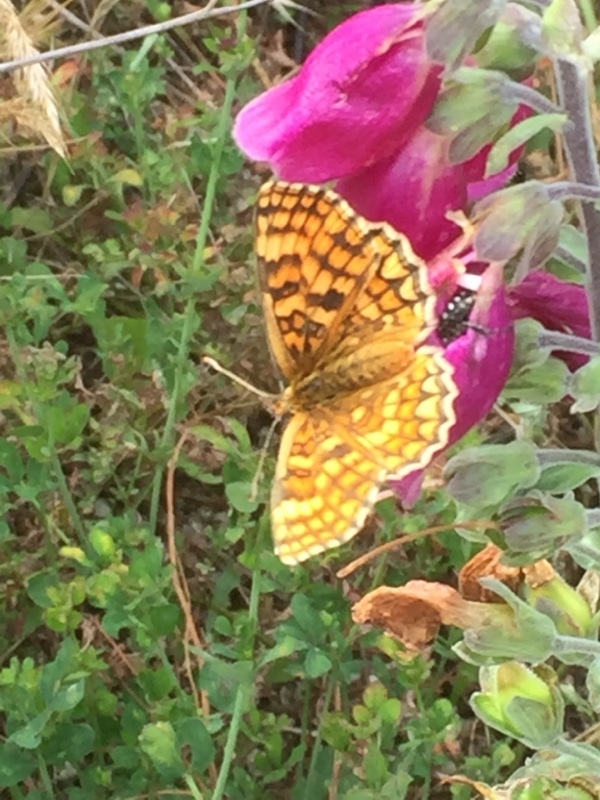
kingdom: Animalia
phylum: Arthropoda
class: Insecta
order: Lepidoptera
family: Nymphalidae
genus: Mellicta
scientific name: Mellicta athalia
